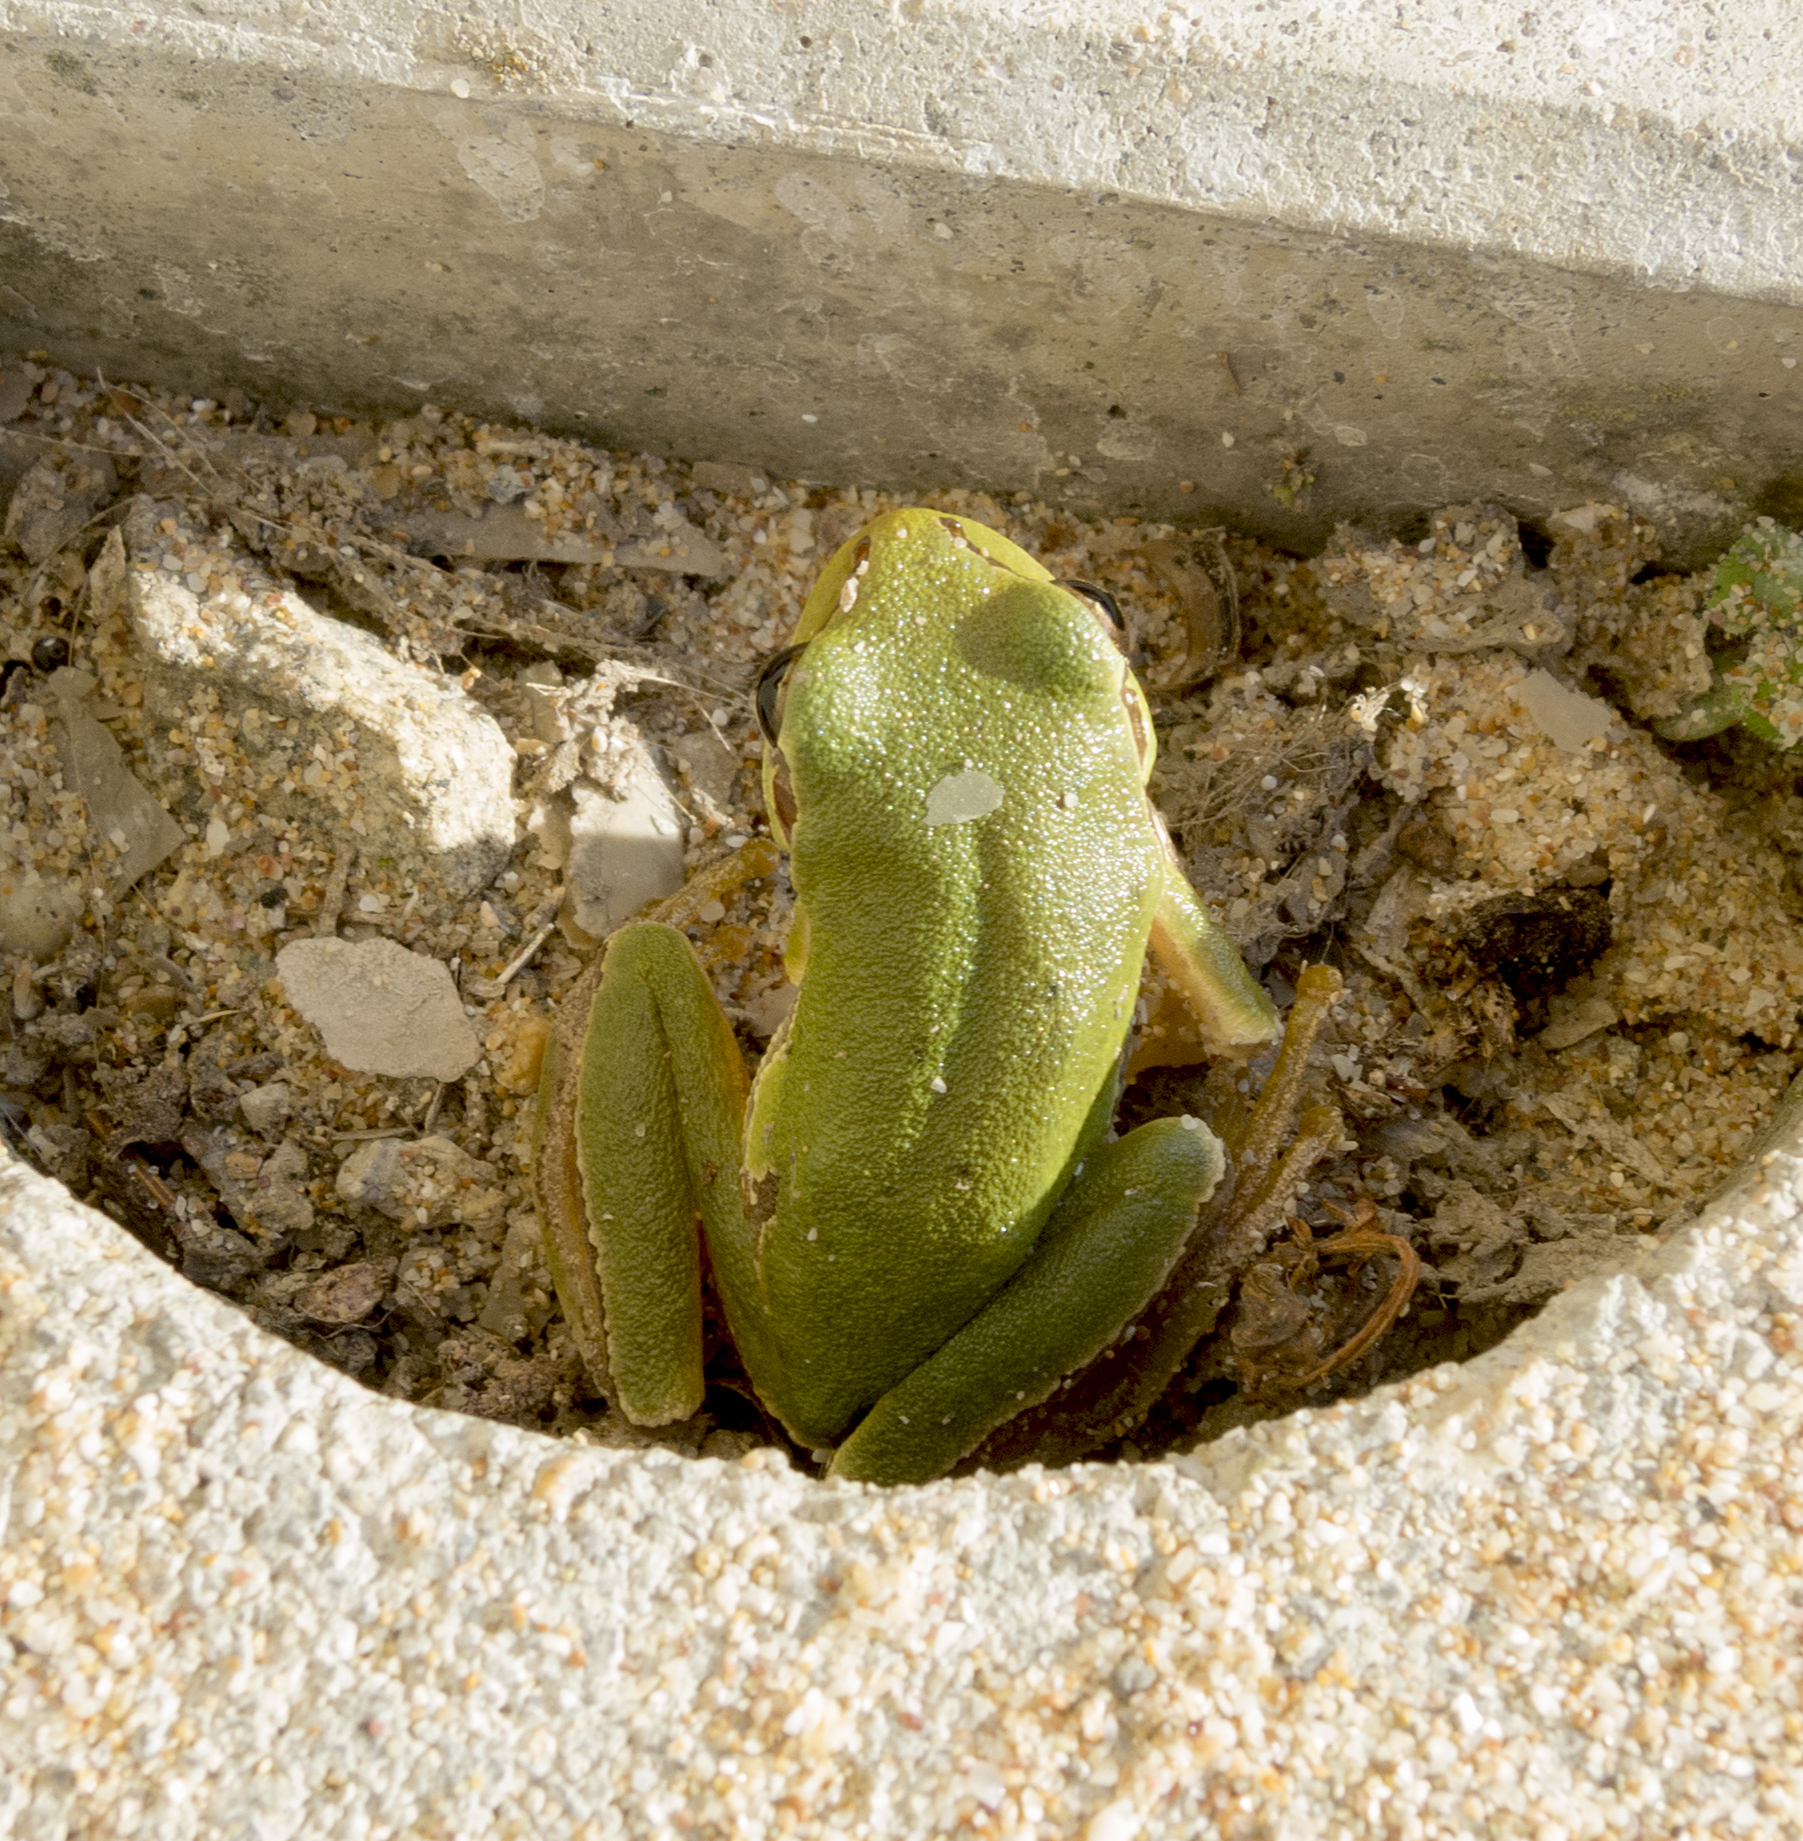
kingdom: Animalia
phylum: Chordata
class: Amphibia
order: Anura
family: Hylidae
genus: Hyla
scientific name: Hyla orientalis
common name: Caucasian treefrog
